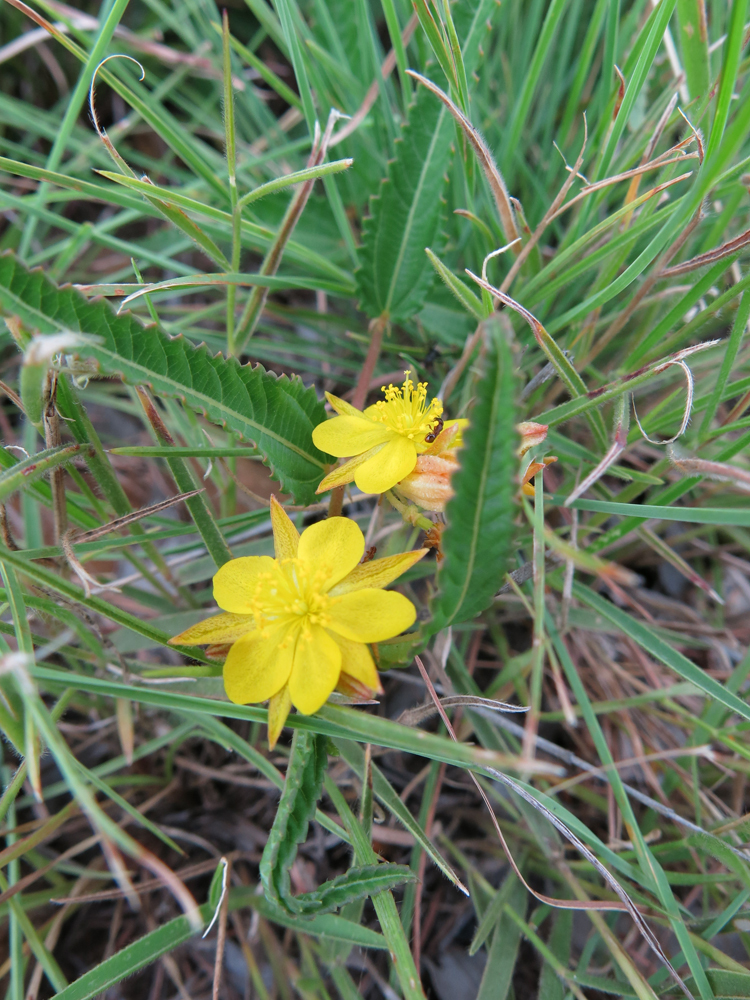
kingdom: Plantae
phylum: Tracheophyta
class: Magnoliopsida
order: Malvales
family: Malvaceae
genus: Corchorus
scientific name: Corchorus confusus
